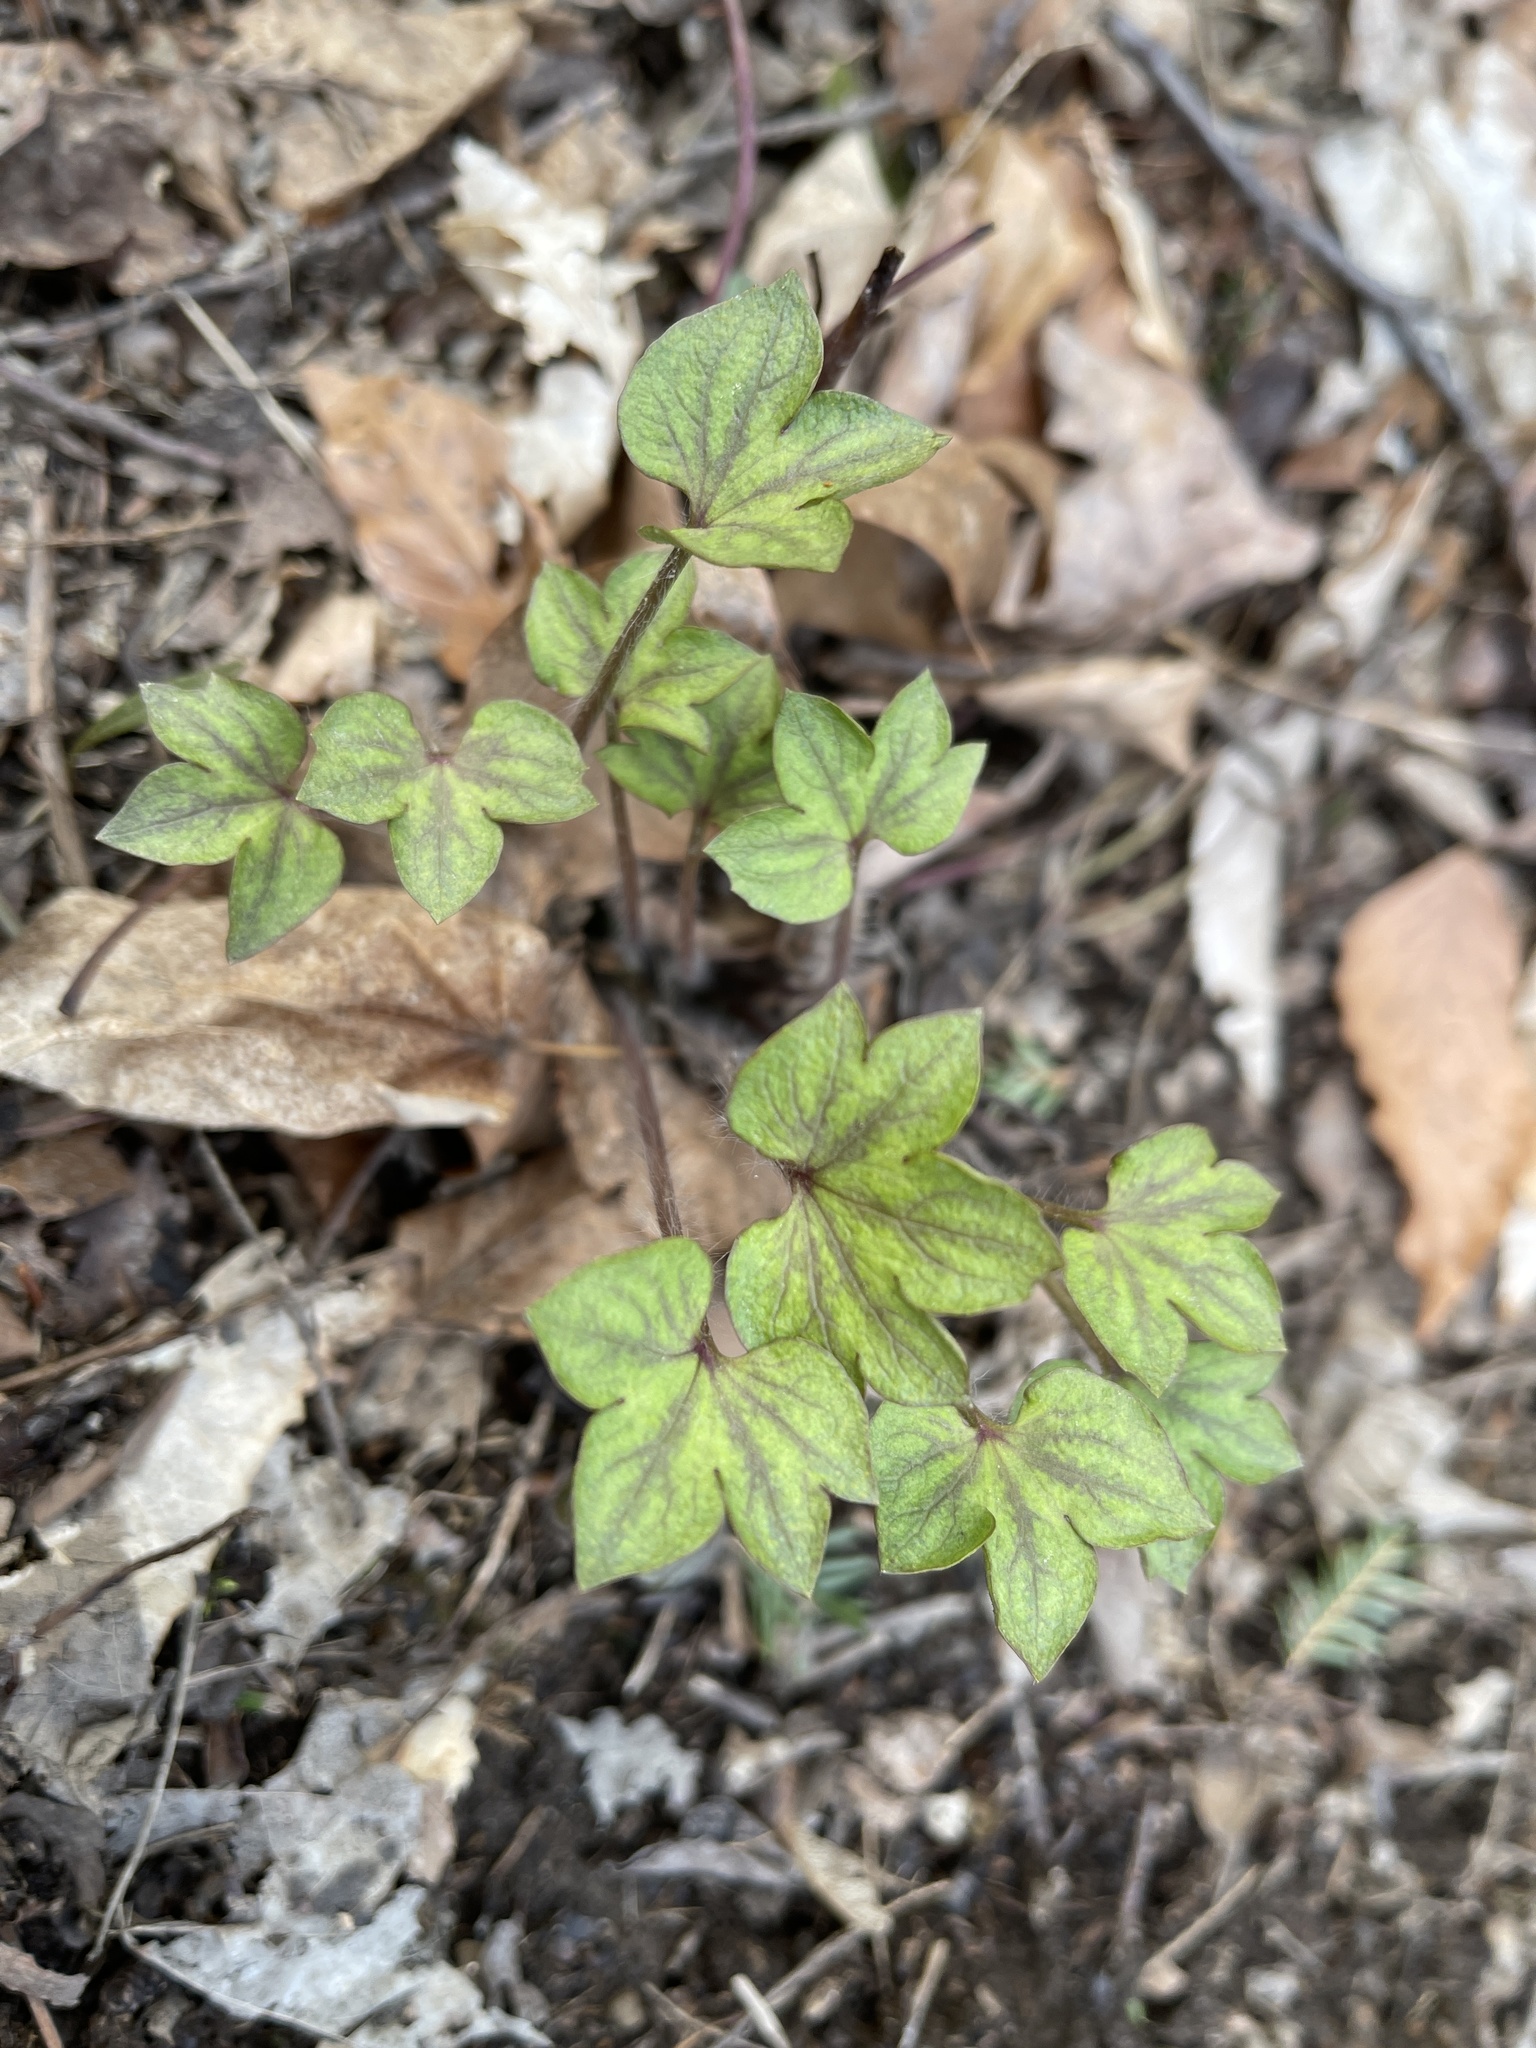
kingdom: Plantae
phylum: Tracheophyta
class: Magnoliopsida
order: Ranunculales
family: Ranunculaceae
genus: Hepatica
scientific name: Hepatica acutiloba
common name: Sharp-lobed hepatica
